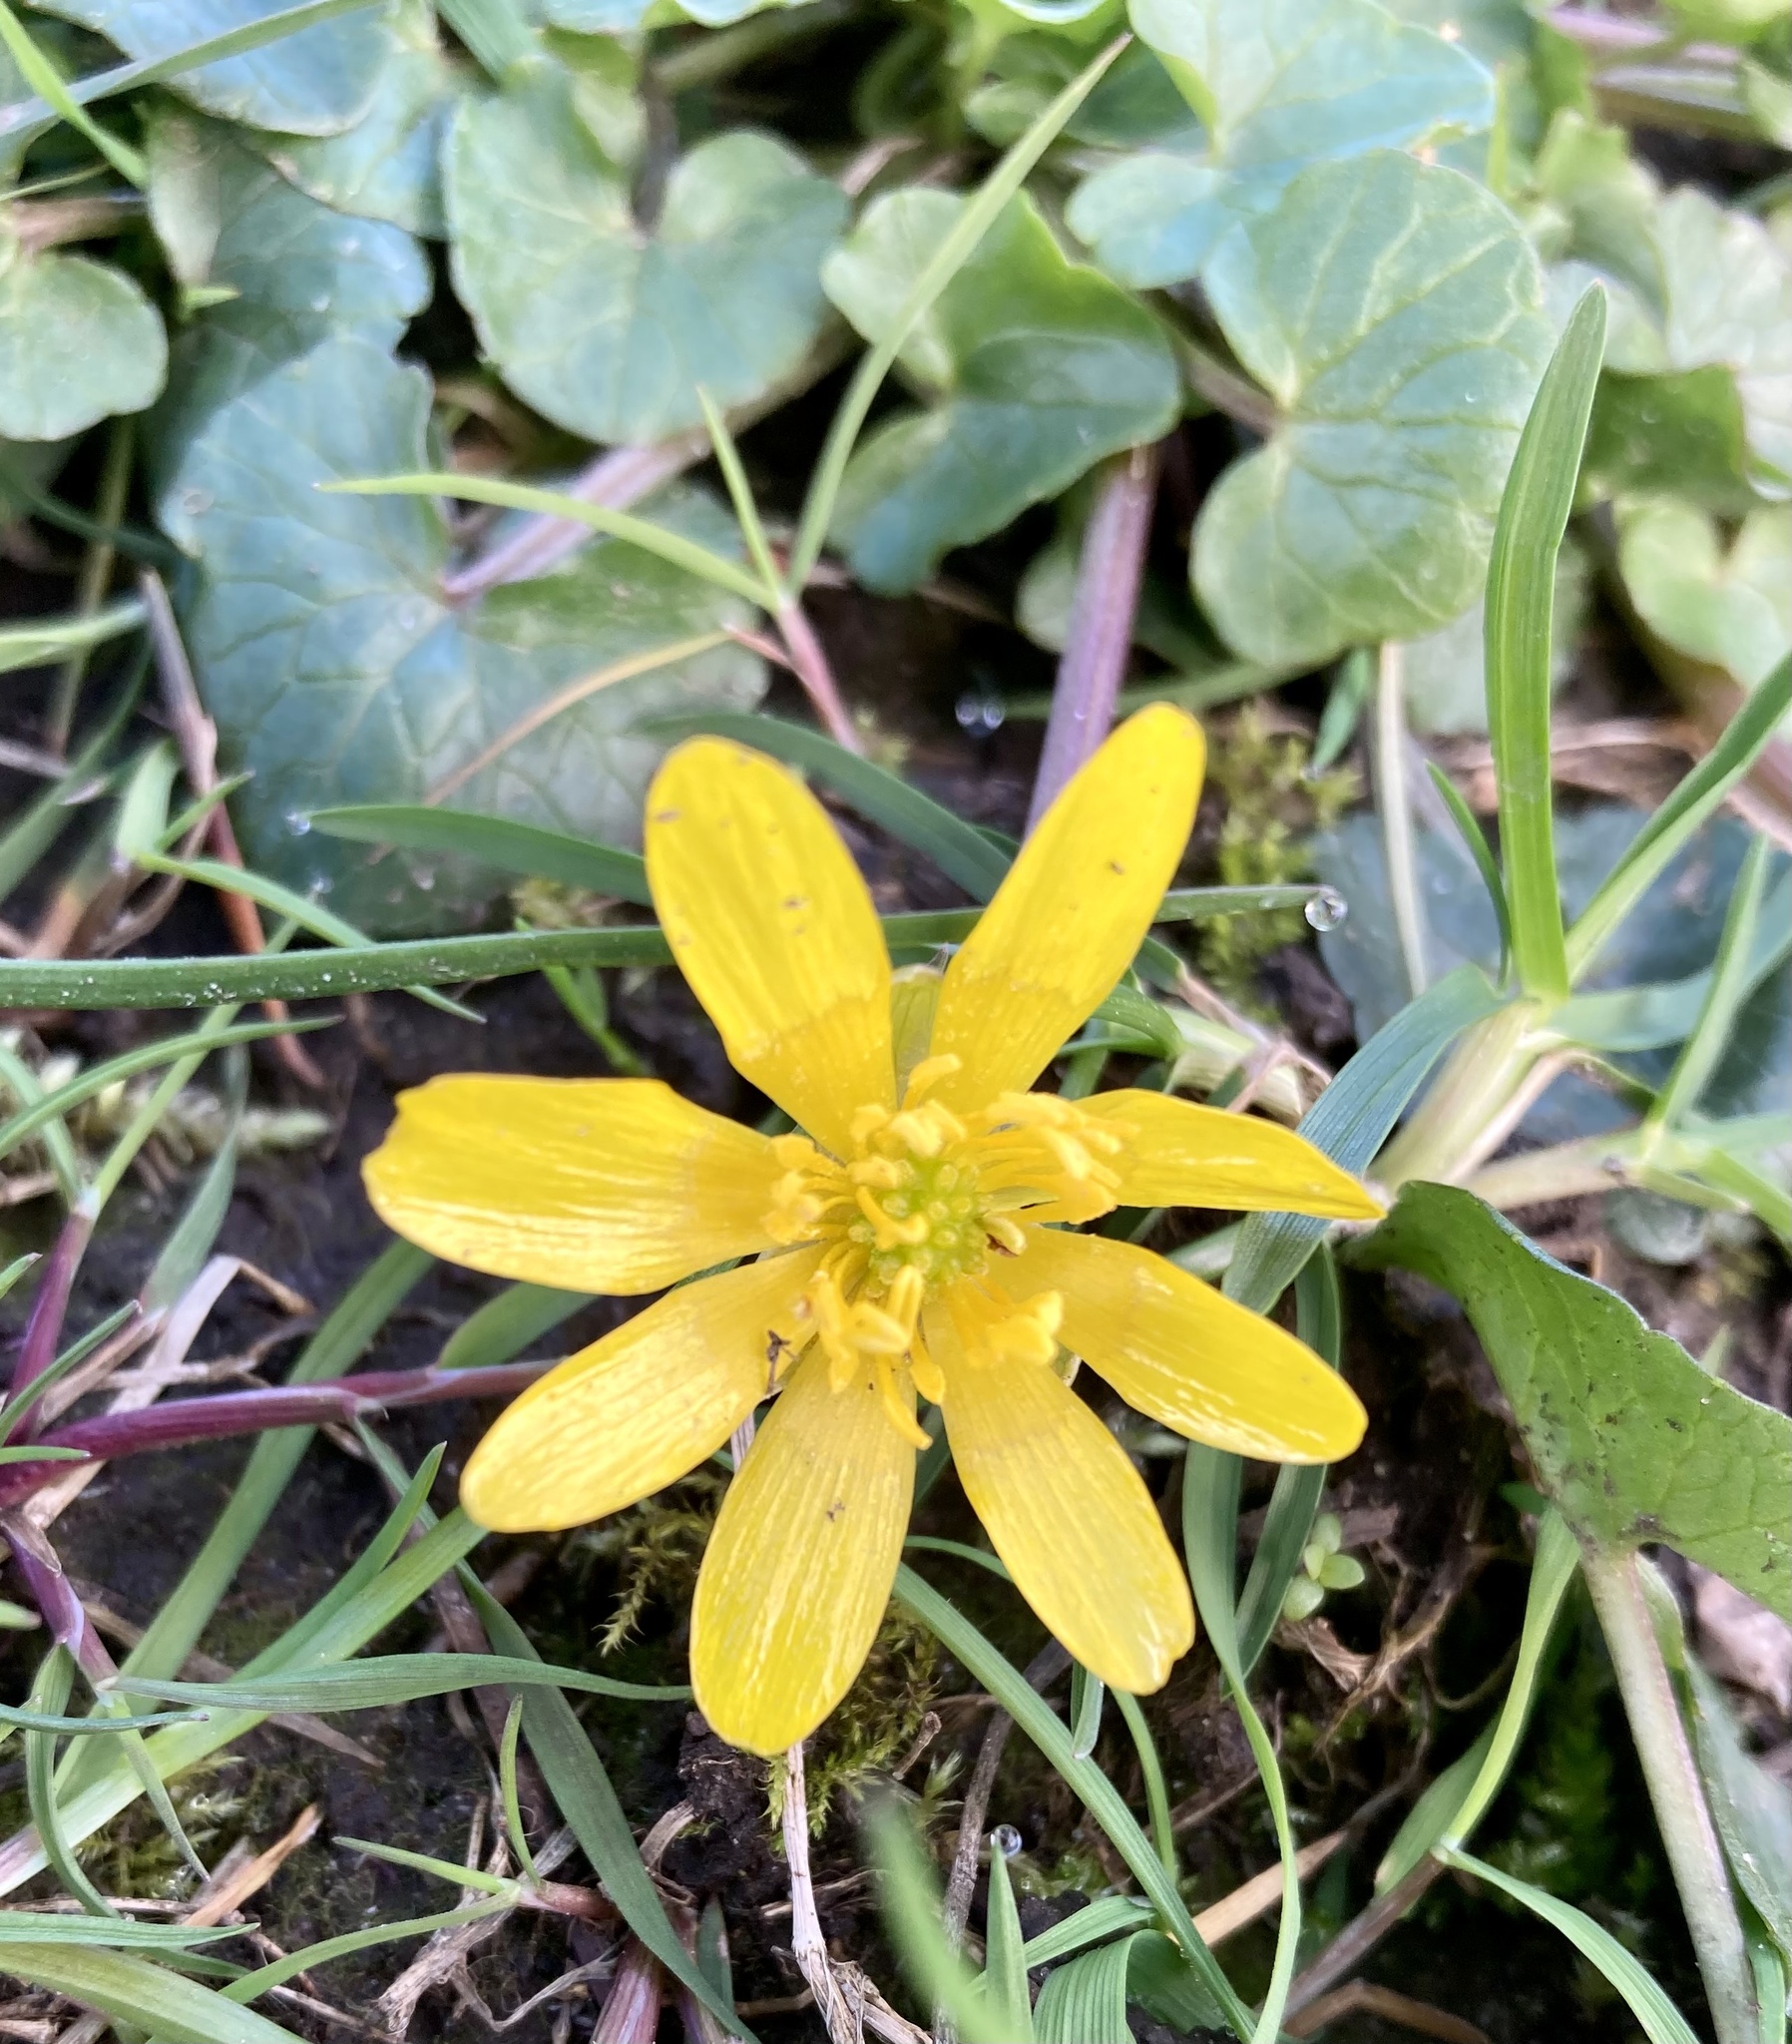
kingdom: Plantae
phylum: Tracheophyta
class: Magnoliopsida
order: Ranunculales
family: Ranunculaceae
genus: Ficaria
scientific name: Ficaria verna
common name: Lesser celandine
